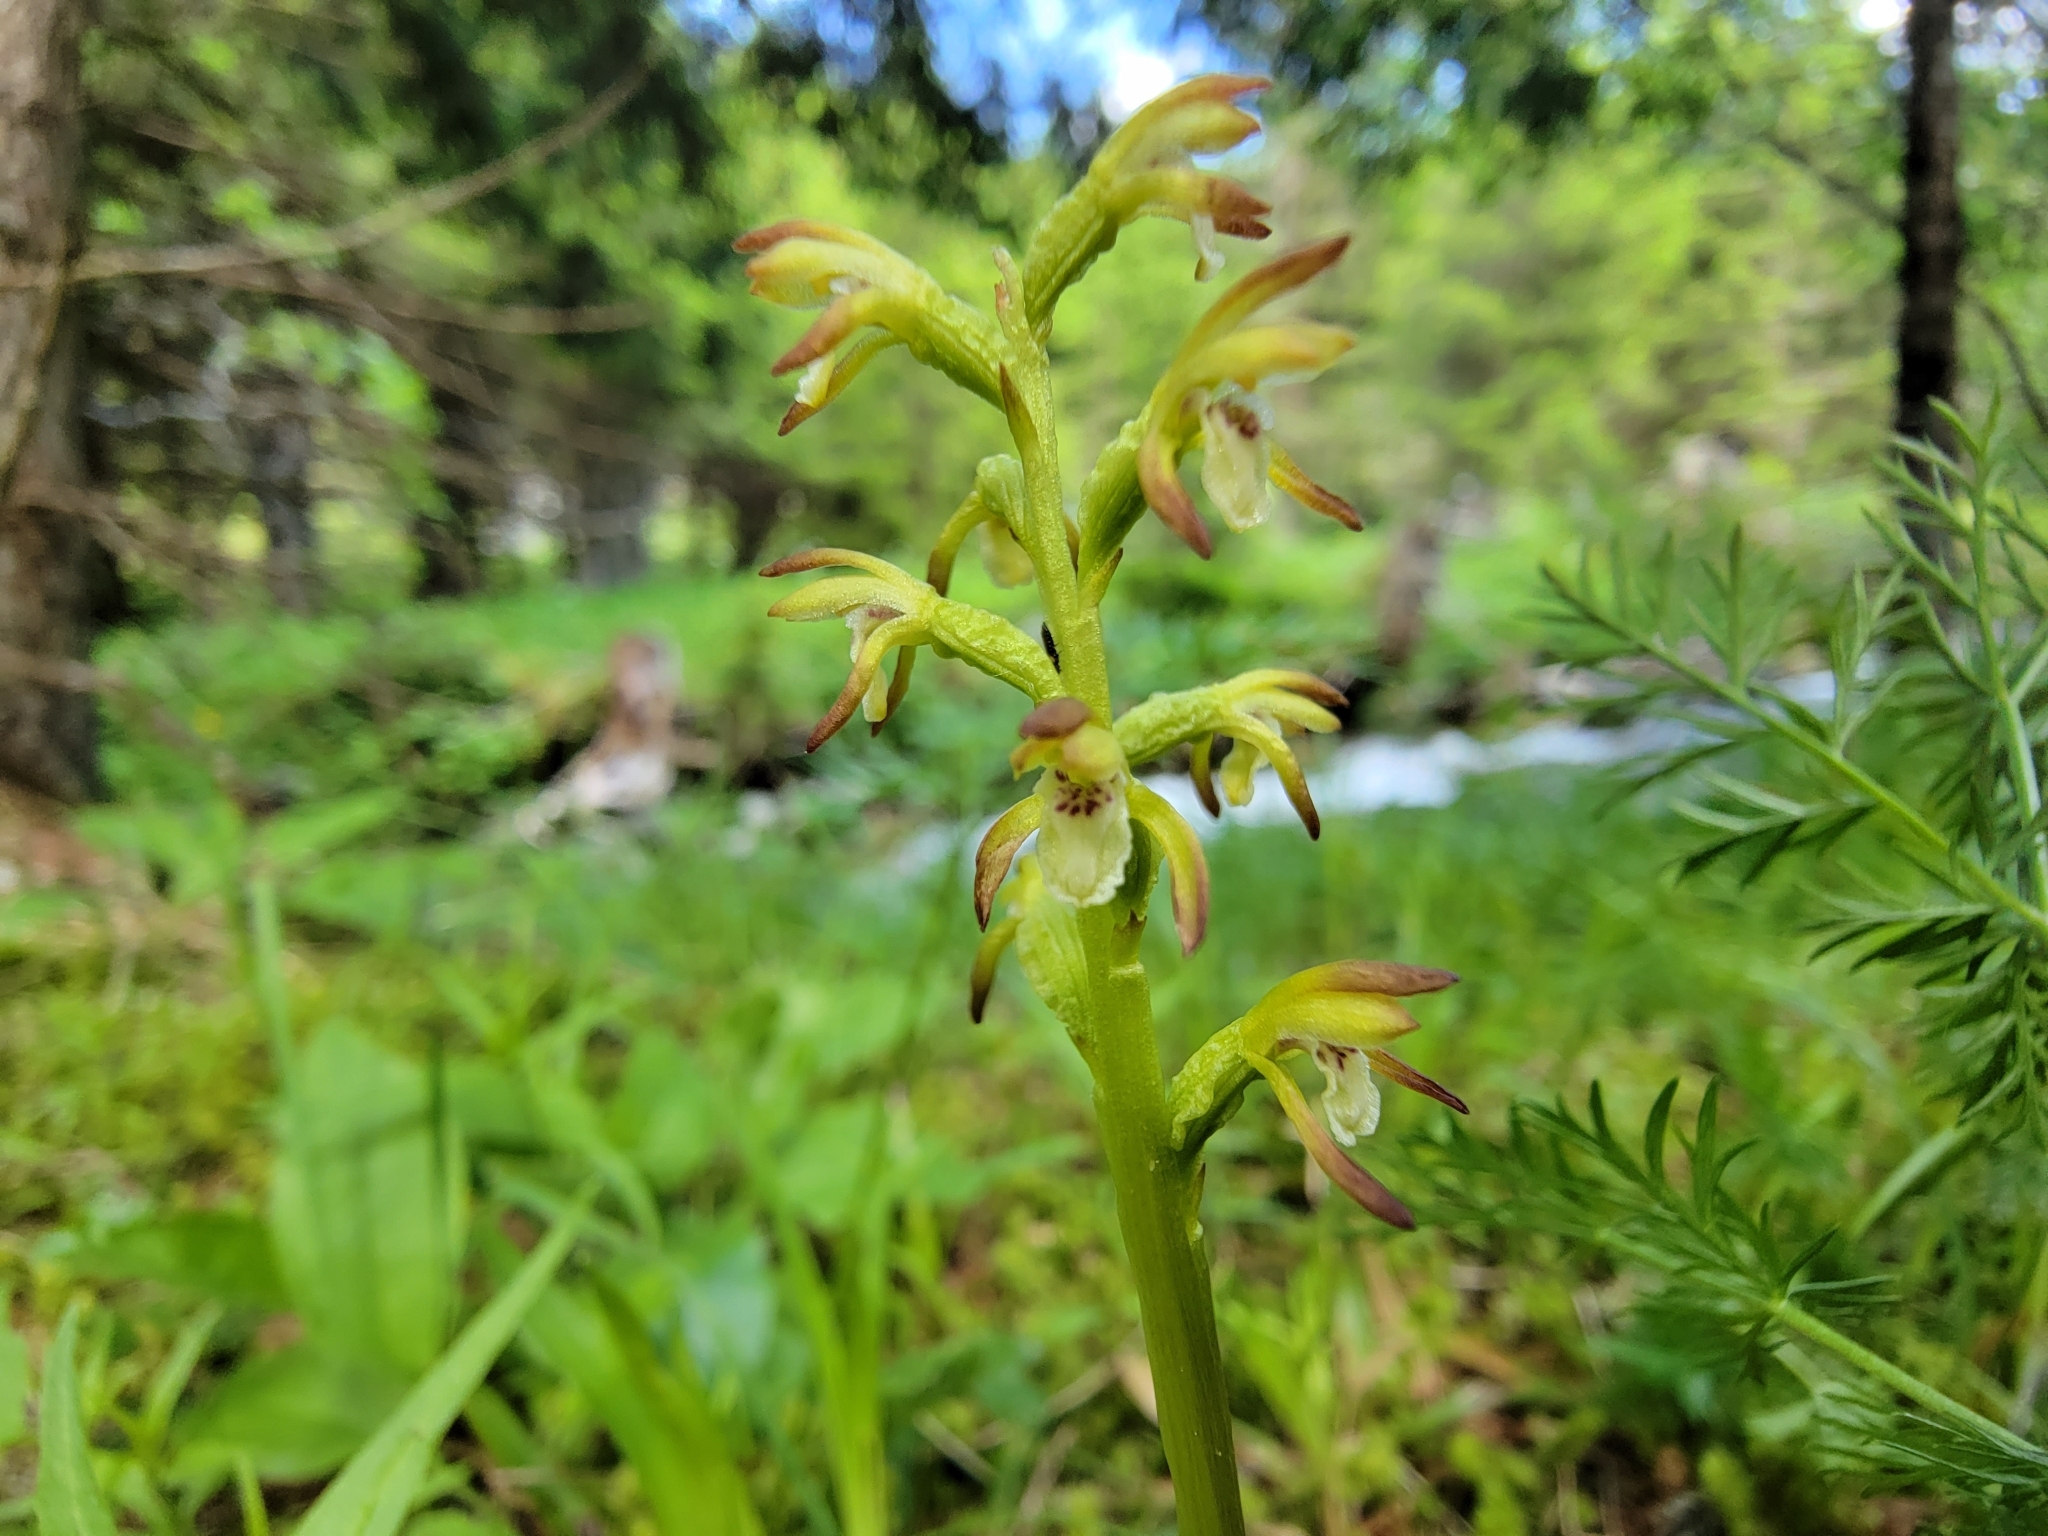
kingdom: Plantae
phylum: Tracheophyta
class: Liliopsida
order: Asparagales
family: Orchidaceae
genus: Corallorhiza
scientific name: Corallorhiza trifida
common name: Yellow coralroot
